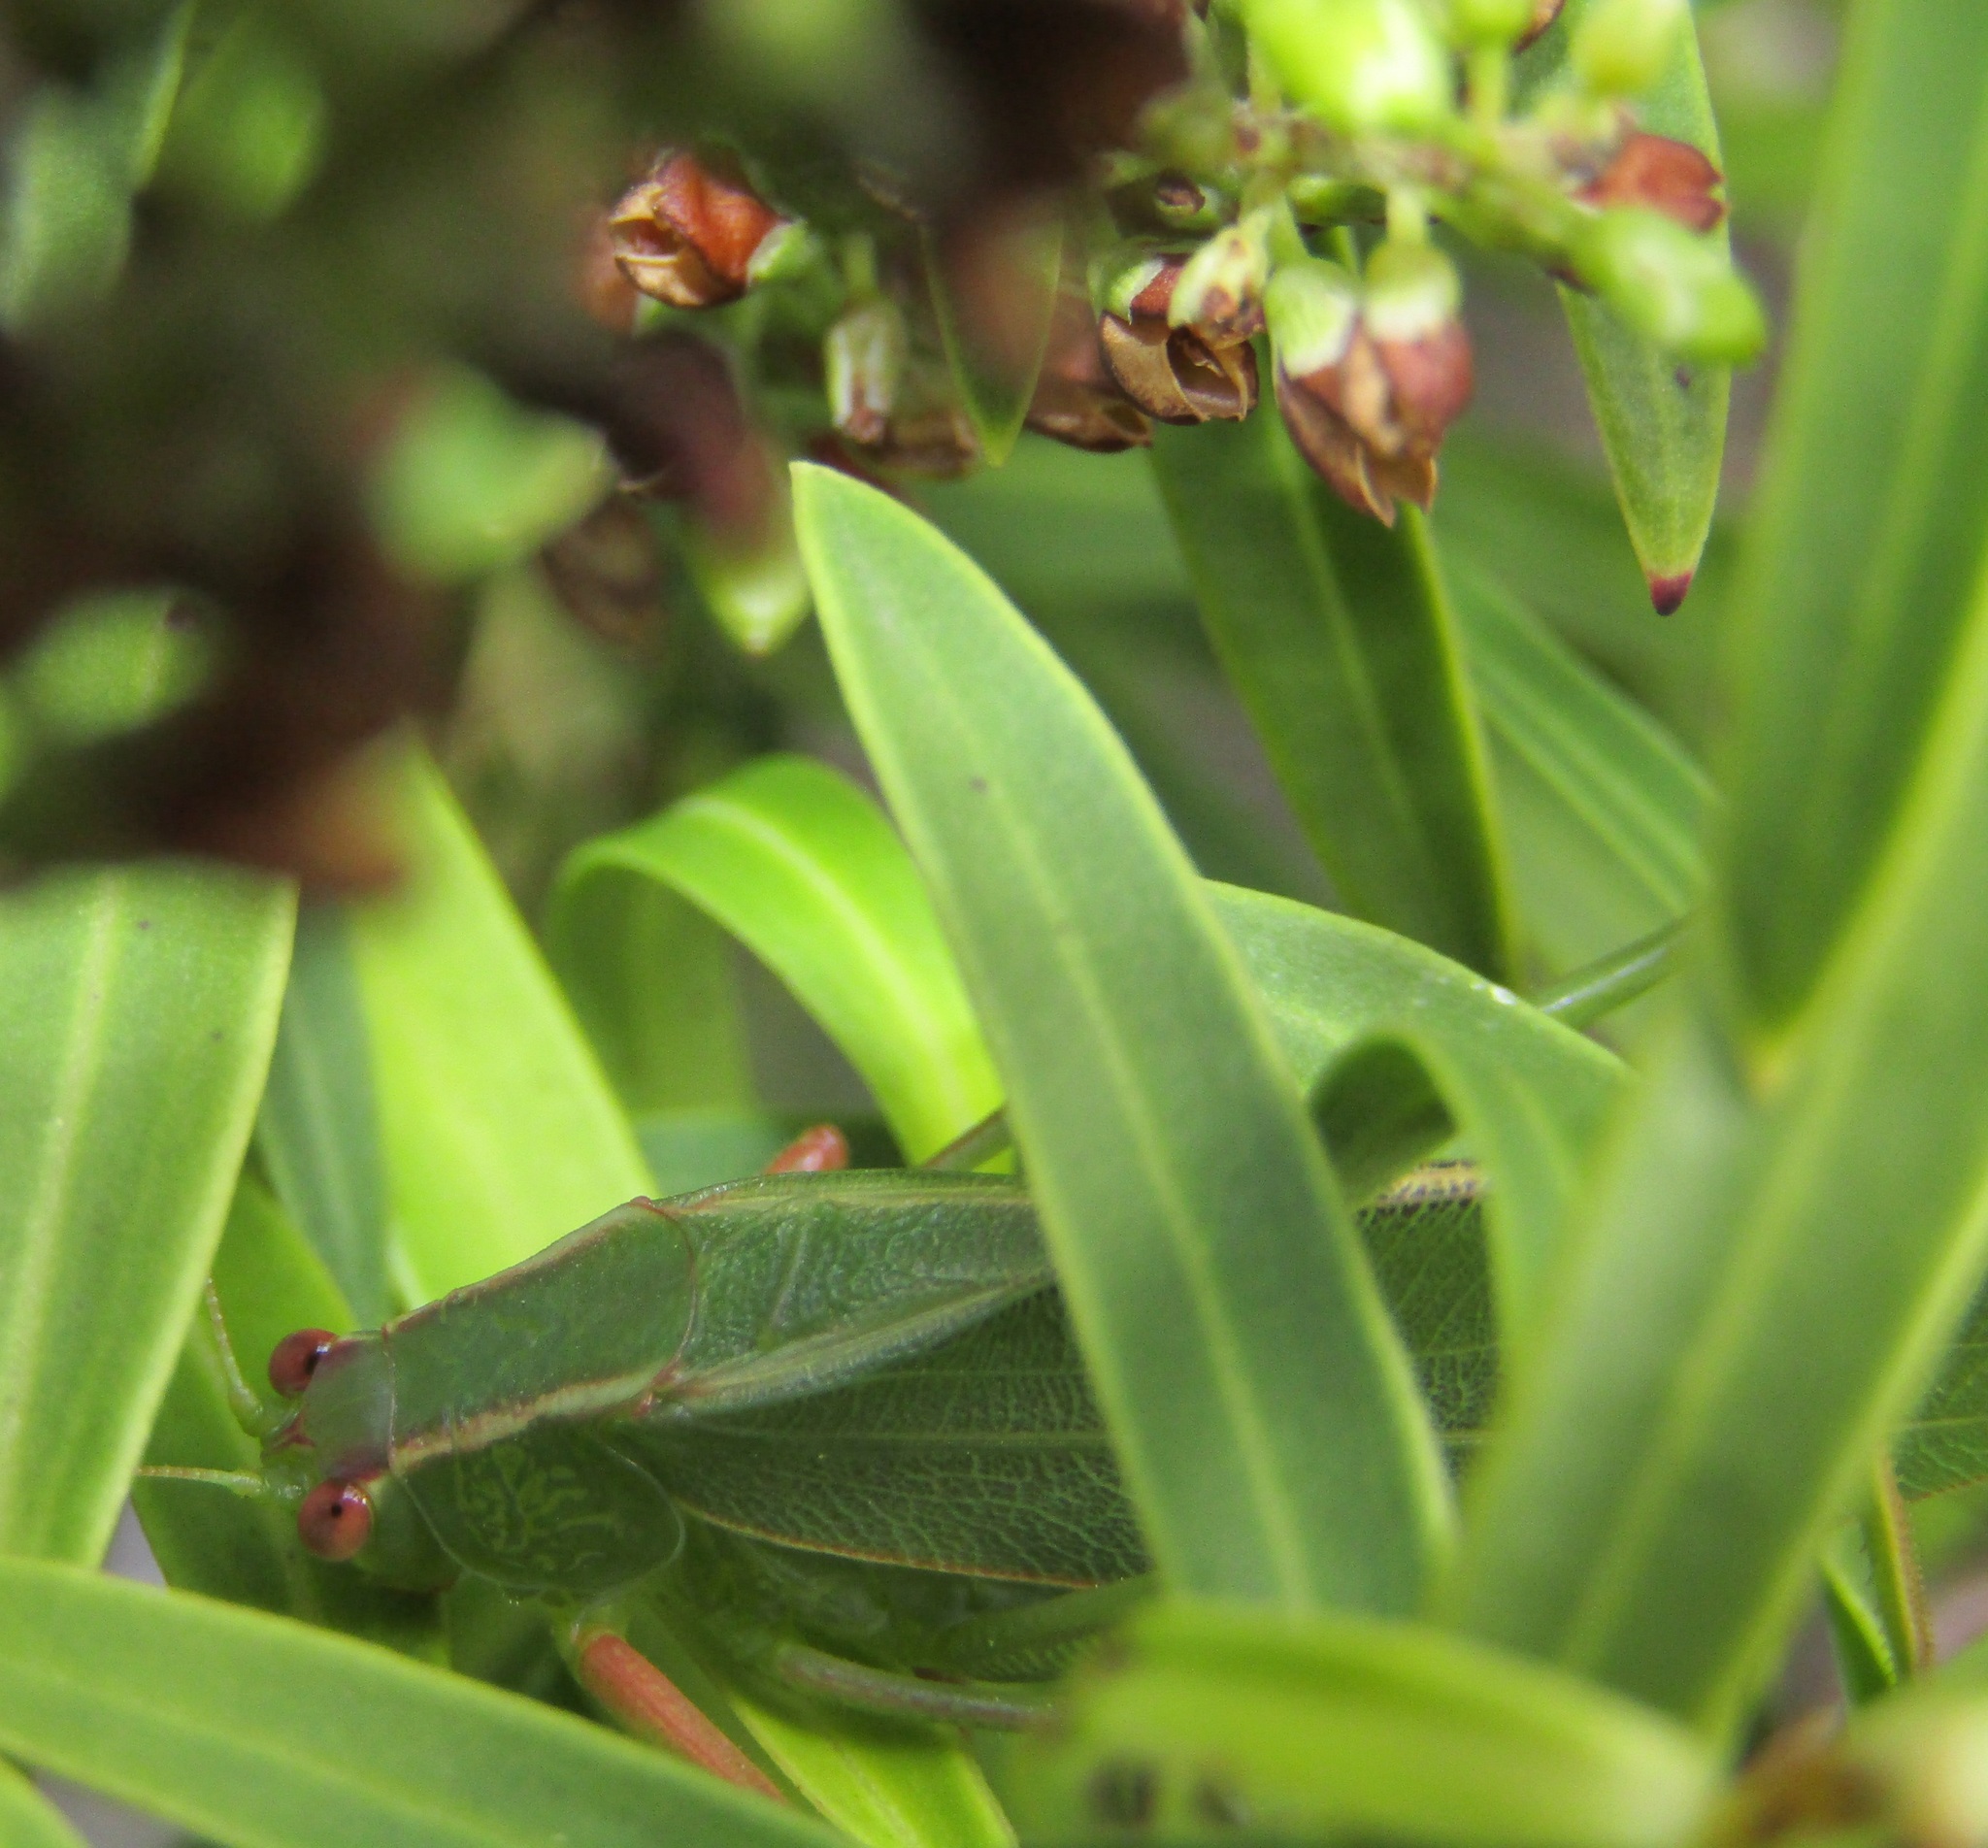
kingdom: Animalia
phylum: Arthropoda
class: Insecta
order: Orthoptera
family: Tettigoniidae
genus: Caedicia
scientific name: Caedicia simplex
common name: Common garden katydid
